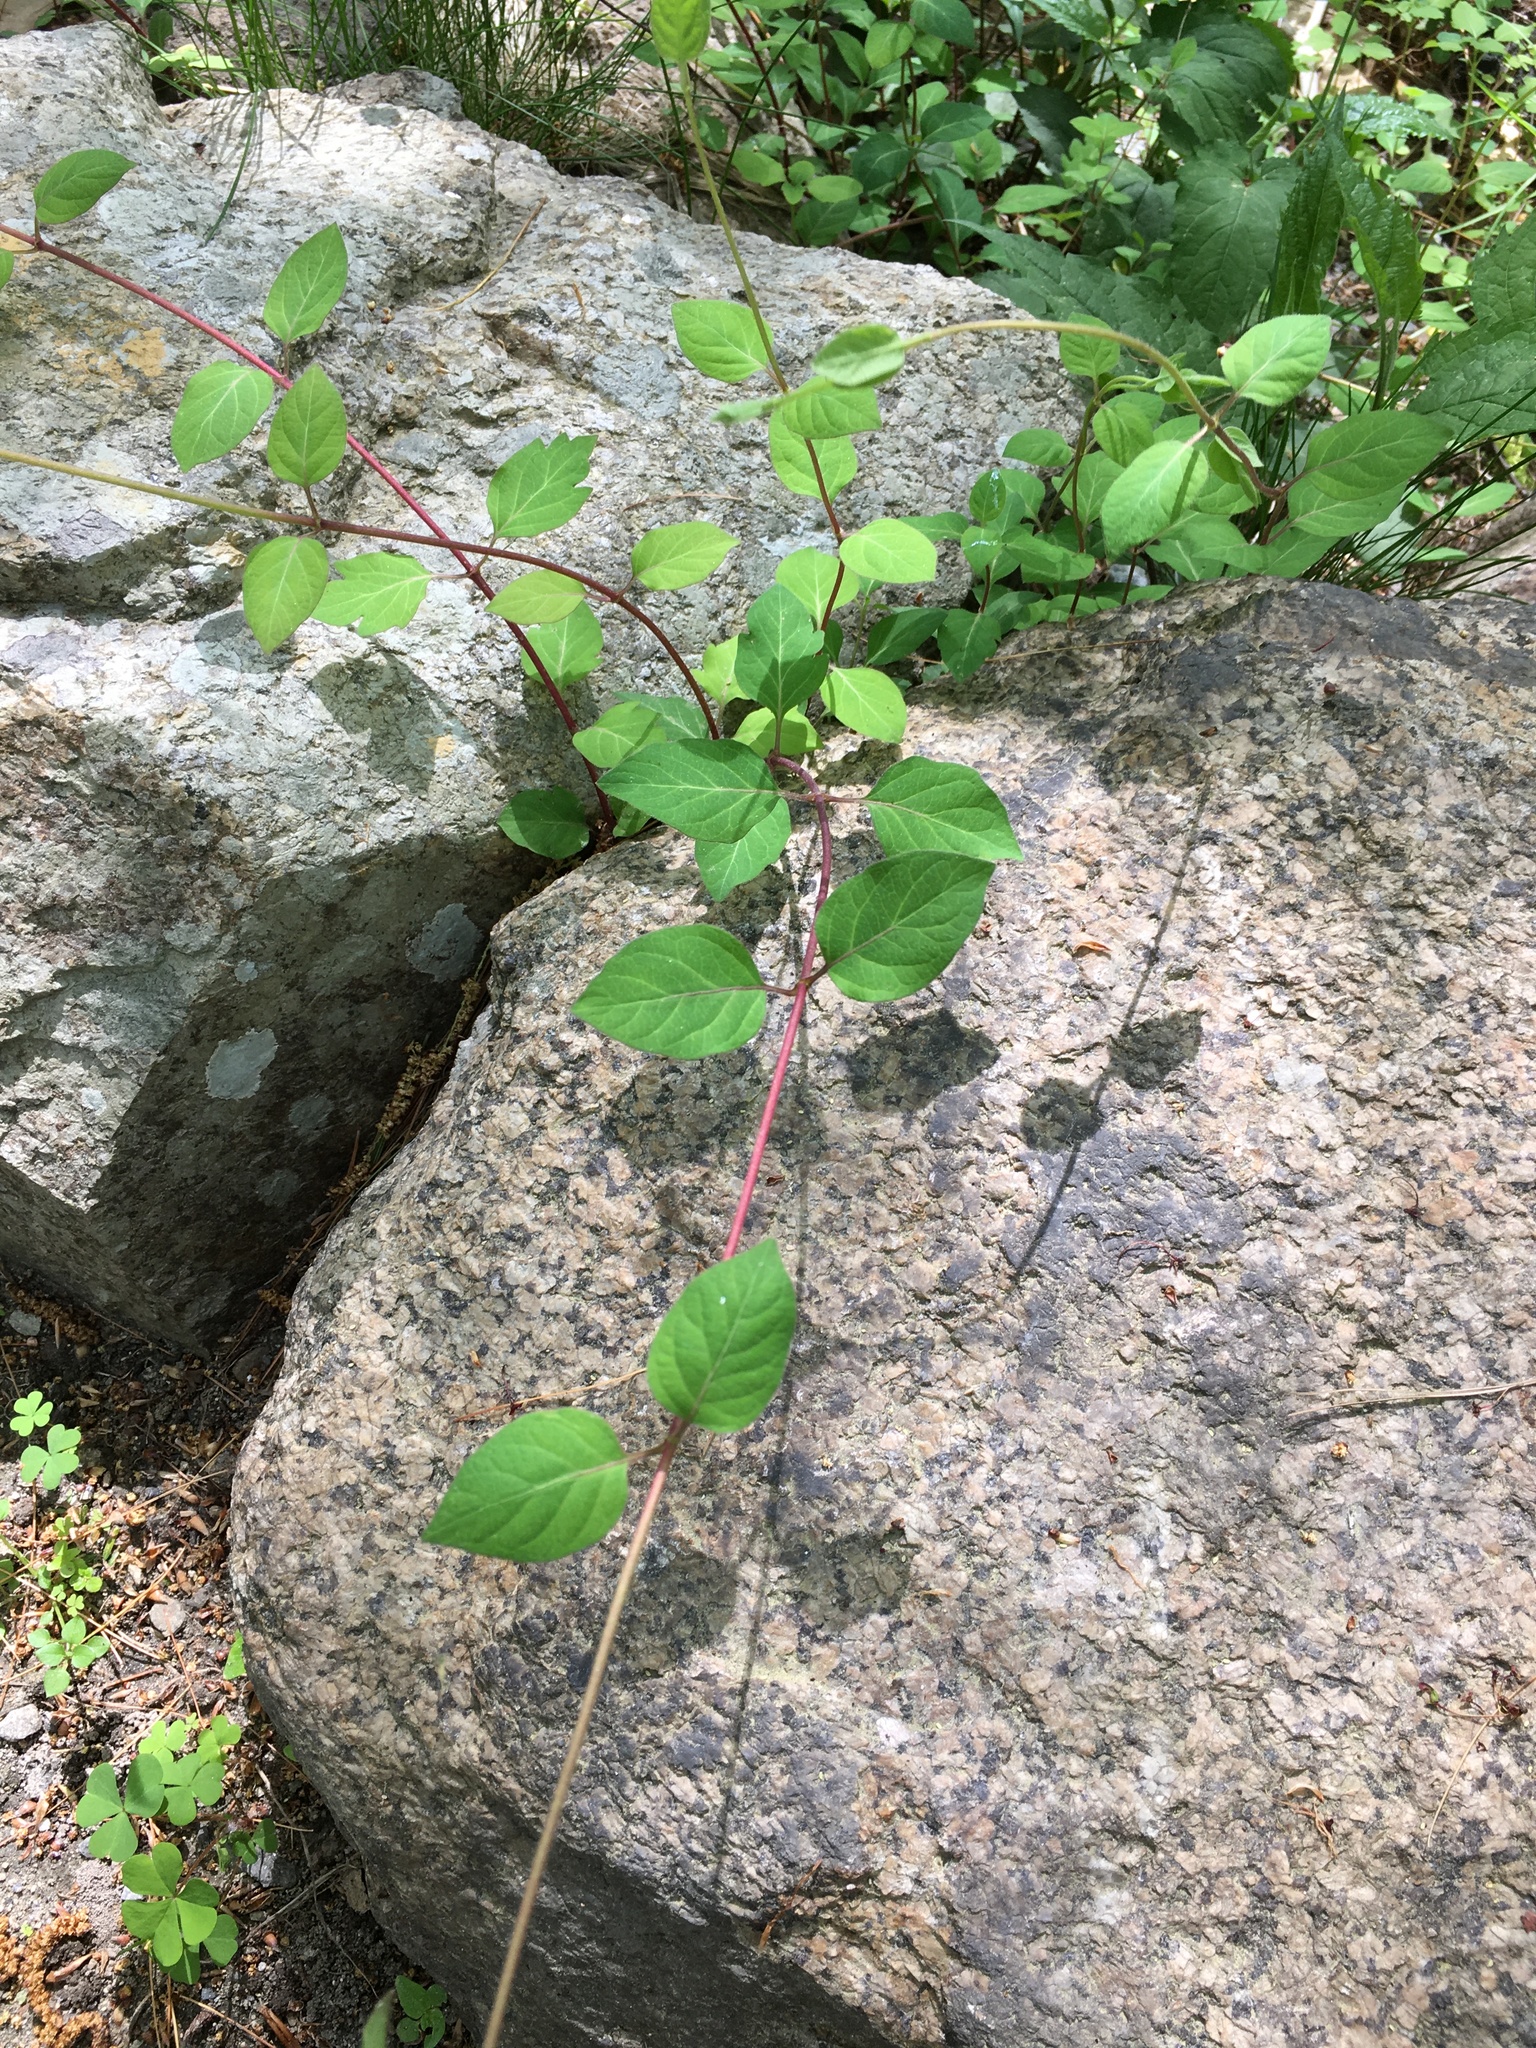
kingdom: Plantae
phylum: Tracheophyta
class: Magnoliopsida
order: Dipsacales
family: Caprifoliaceae
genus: Lonicera
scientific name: Lonicera japonica
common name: Japanese honeysuckle
